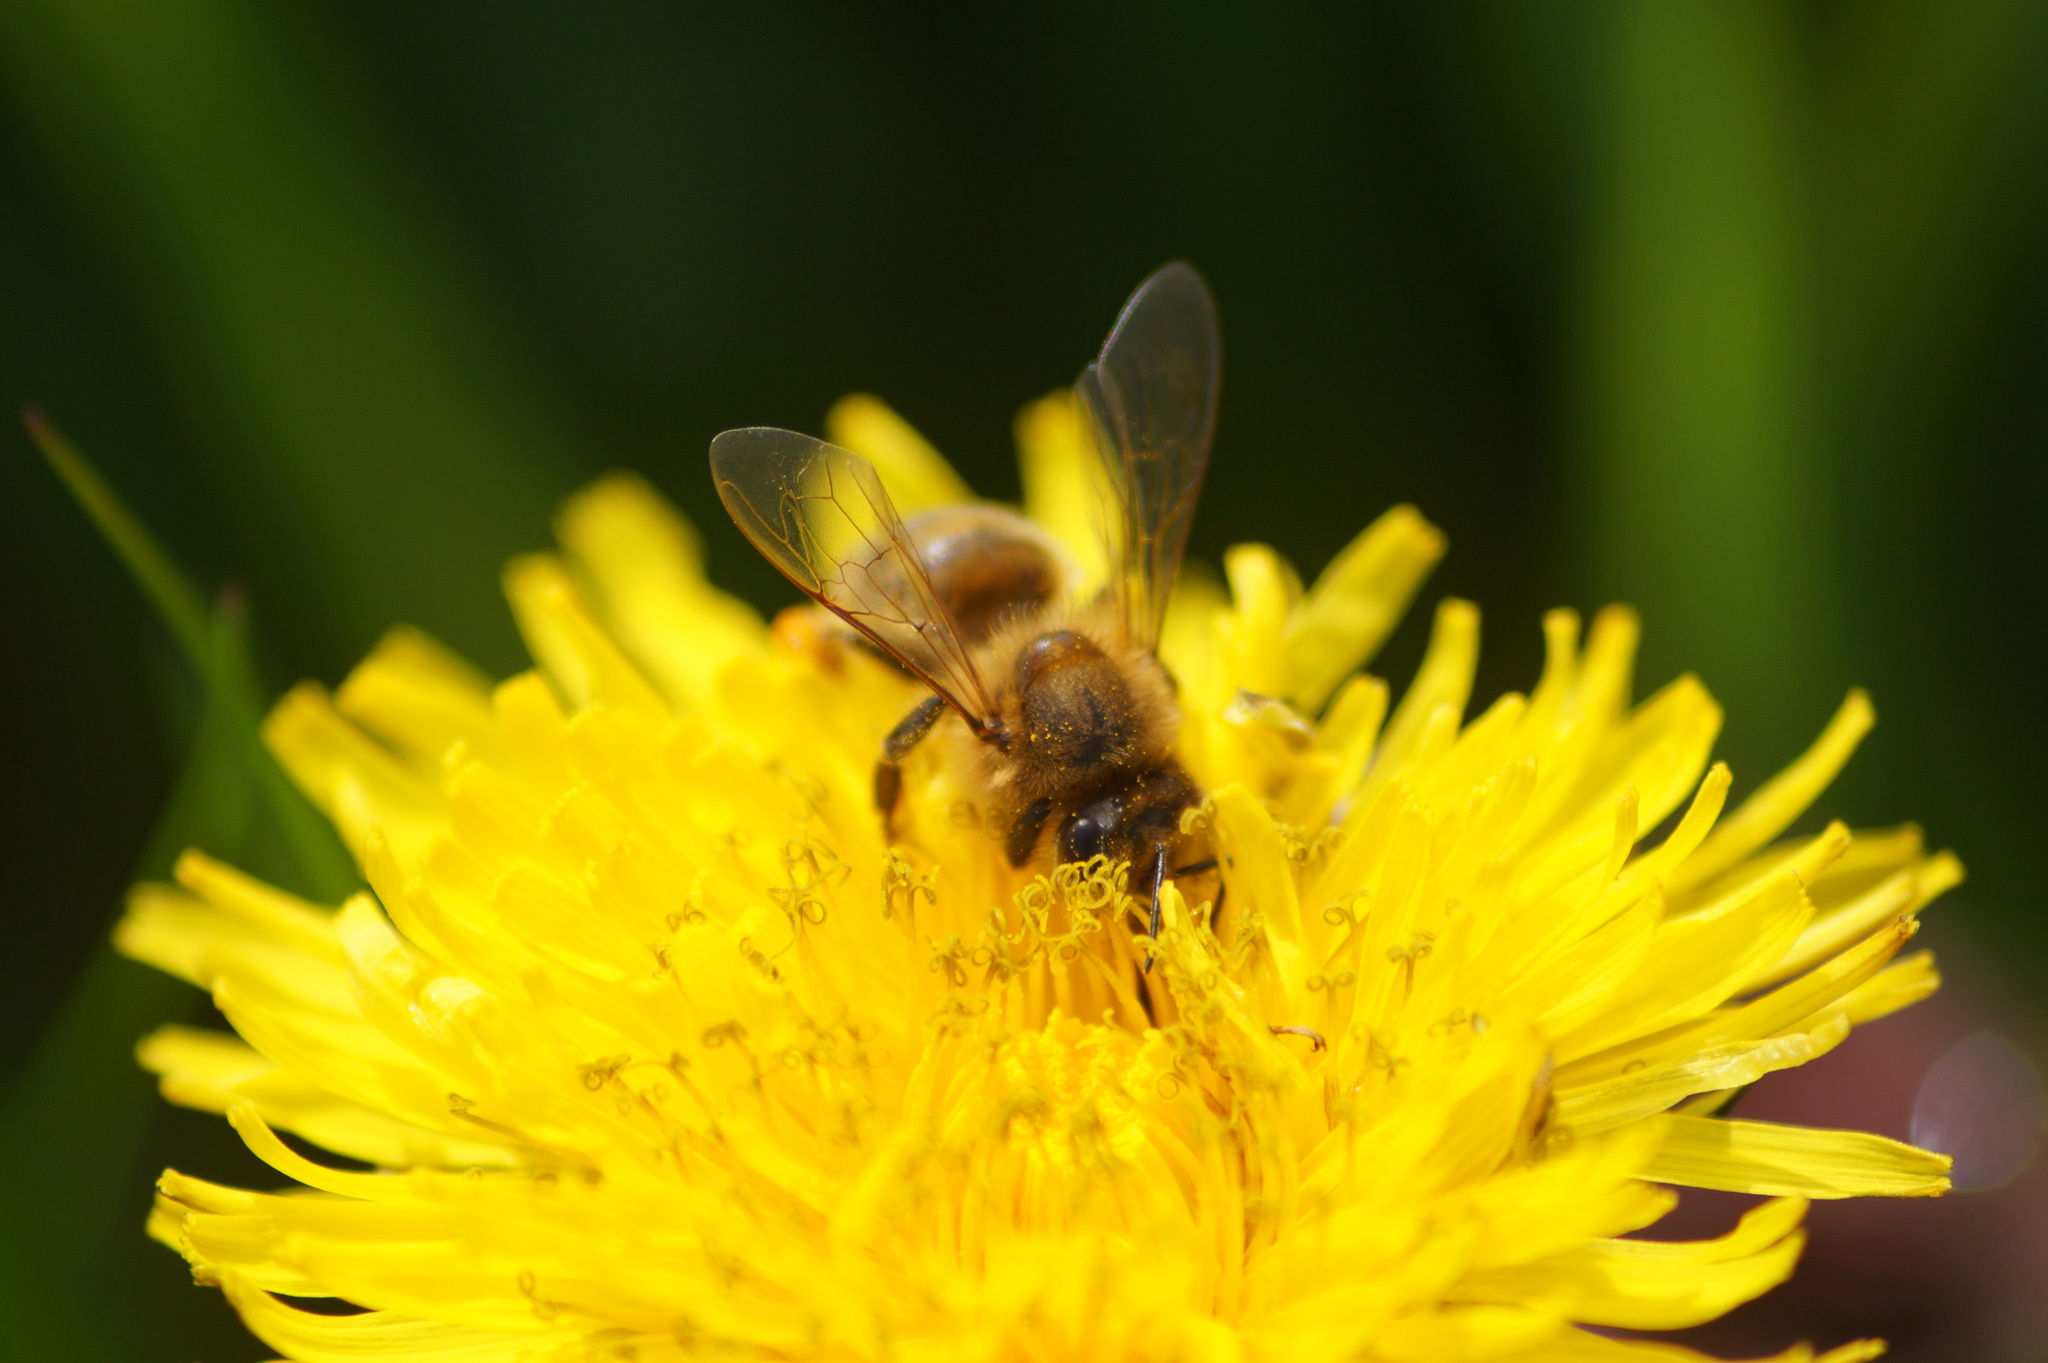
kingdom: Animalia
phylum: Arthropoda
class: Insecta
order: Hymenoptera
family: Apidae
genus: Apis
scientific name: Apis mellifera
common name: Honey bee
